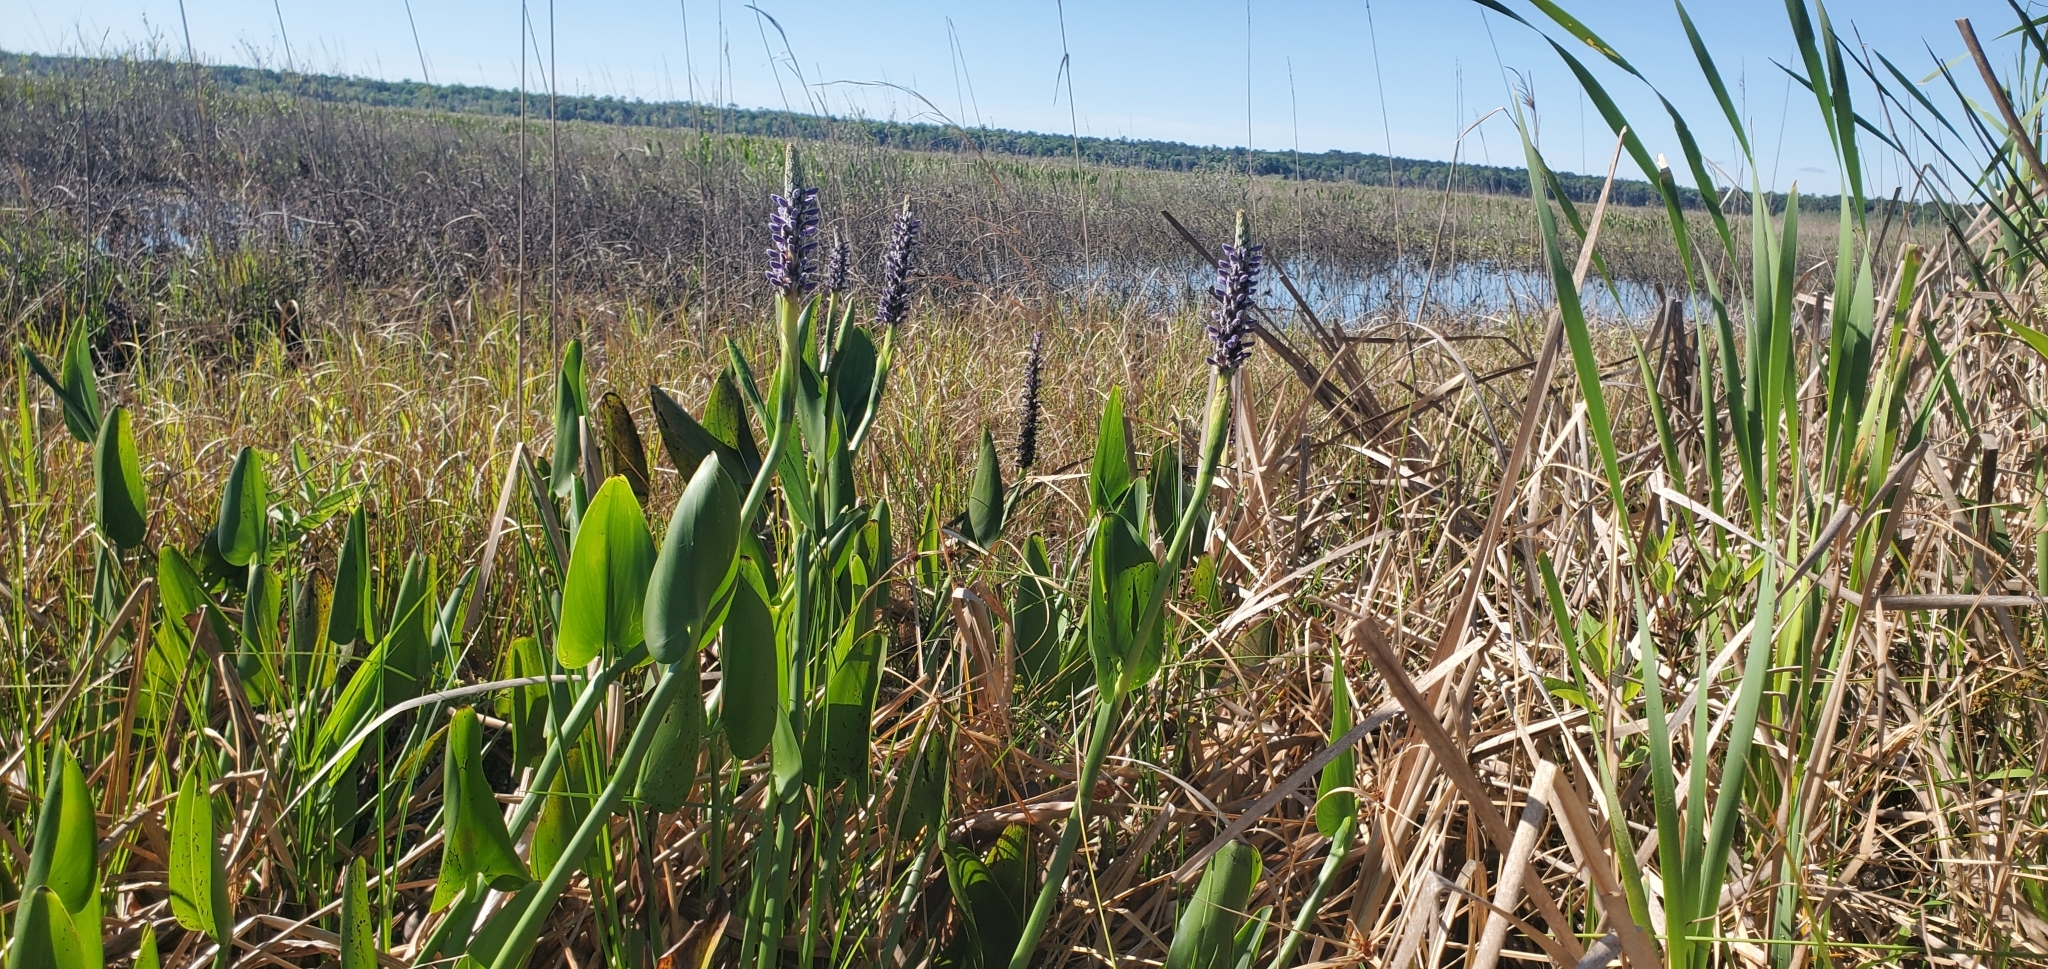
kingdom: Plantae
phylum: Tracheophyta
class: Liliopsida
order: Commelinales
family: Pontederiaceae
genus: Pontederia
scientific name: Pontederia cordata
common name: Pickerelweed
